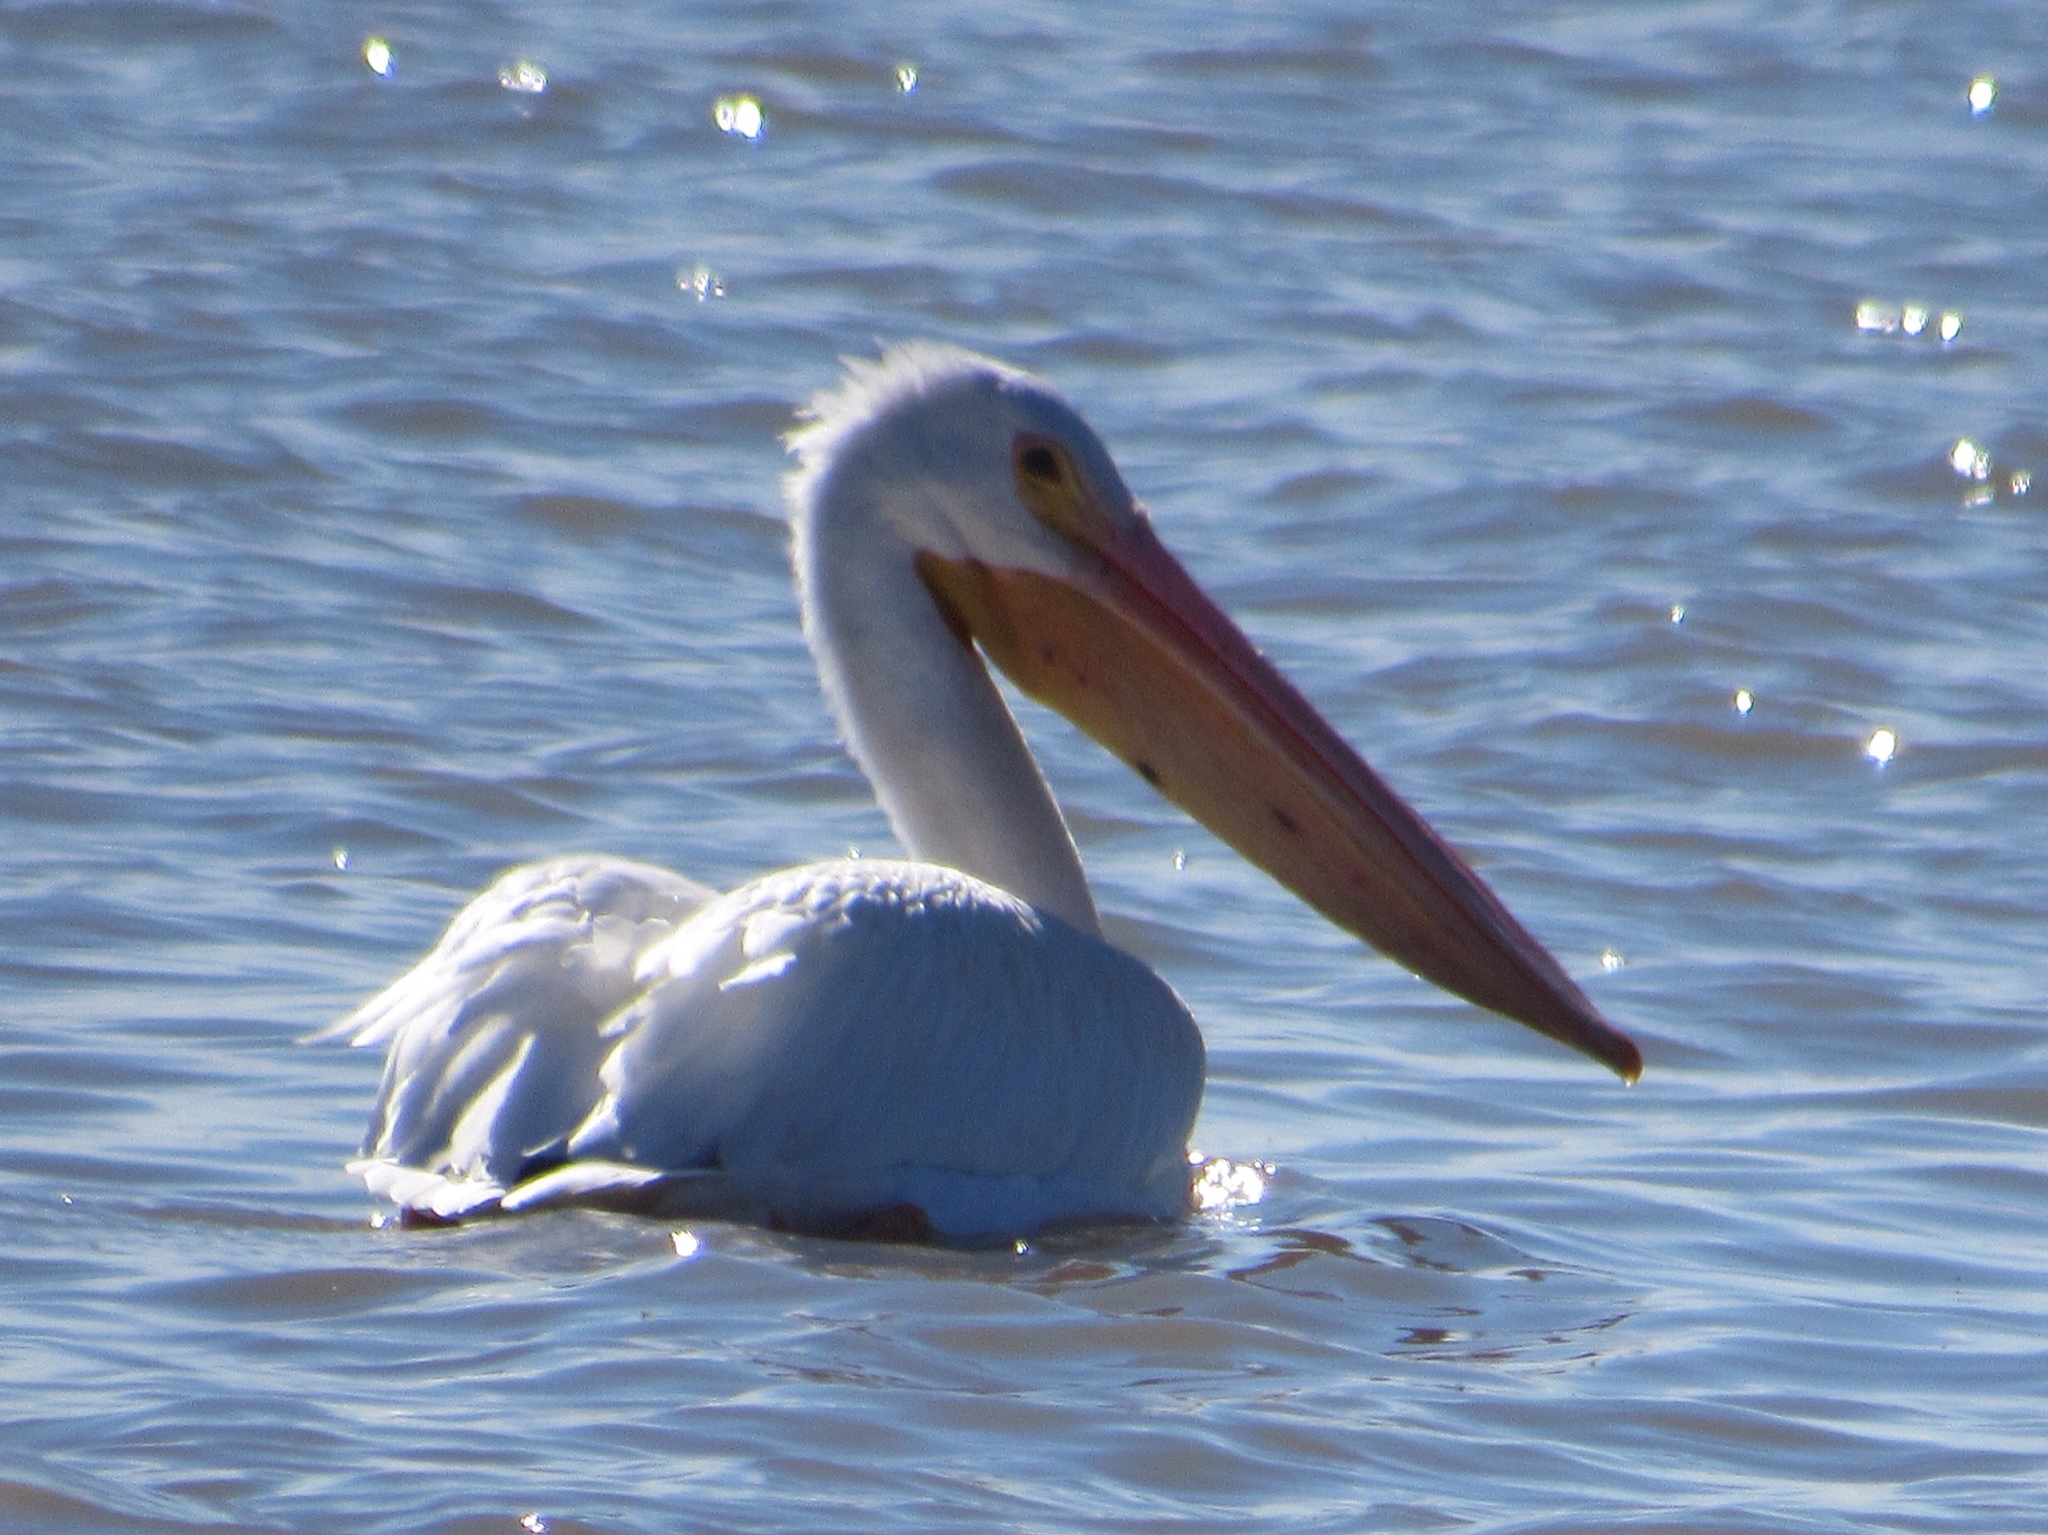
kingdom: Animalia
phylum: Chordata
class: Aves
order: Pelecaniformes
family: Pelecanidae
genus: Pelecanus
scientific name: Pelecanus erythrorhynchos
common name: American white pelican
